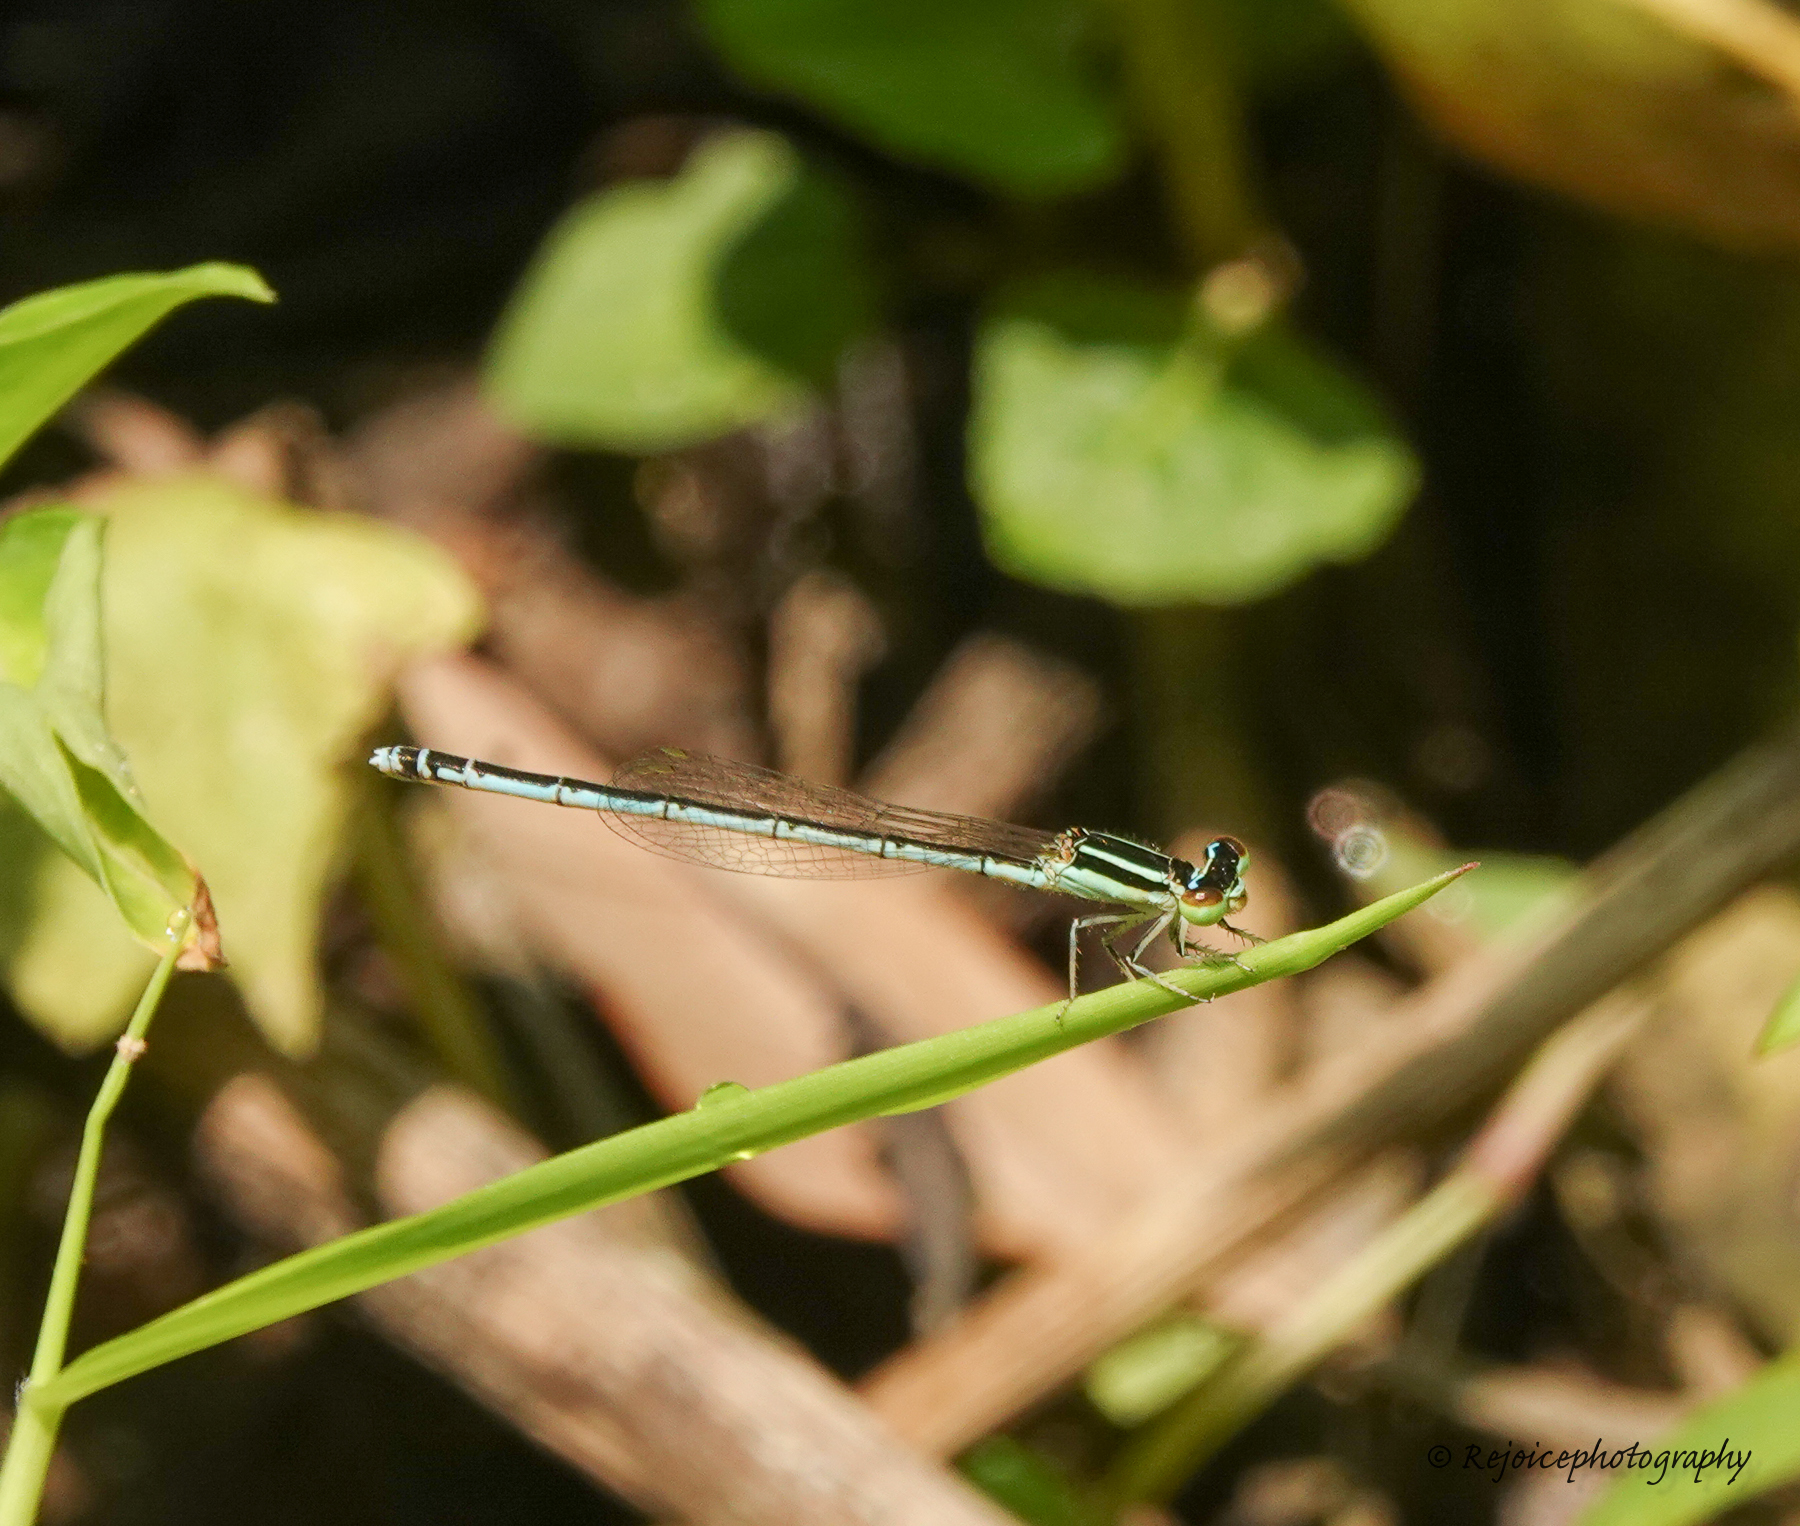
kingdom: Animalia
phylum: Arthropoda
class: Insecta
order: Odonata
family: Coenagrionidae
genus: Agriocnemis
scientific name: Agriocnemis lacteola
